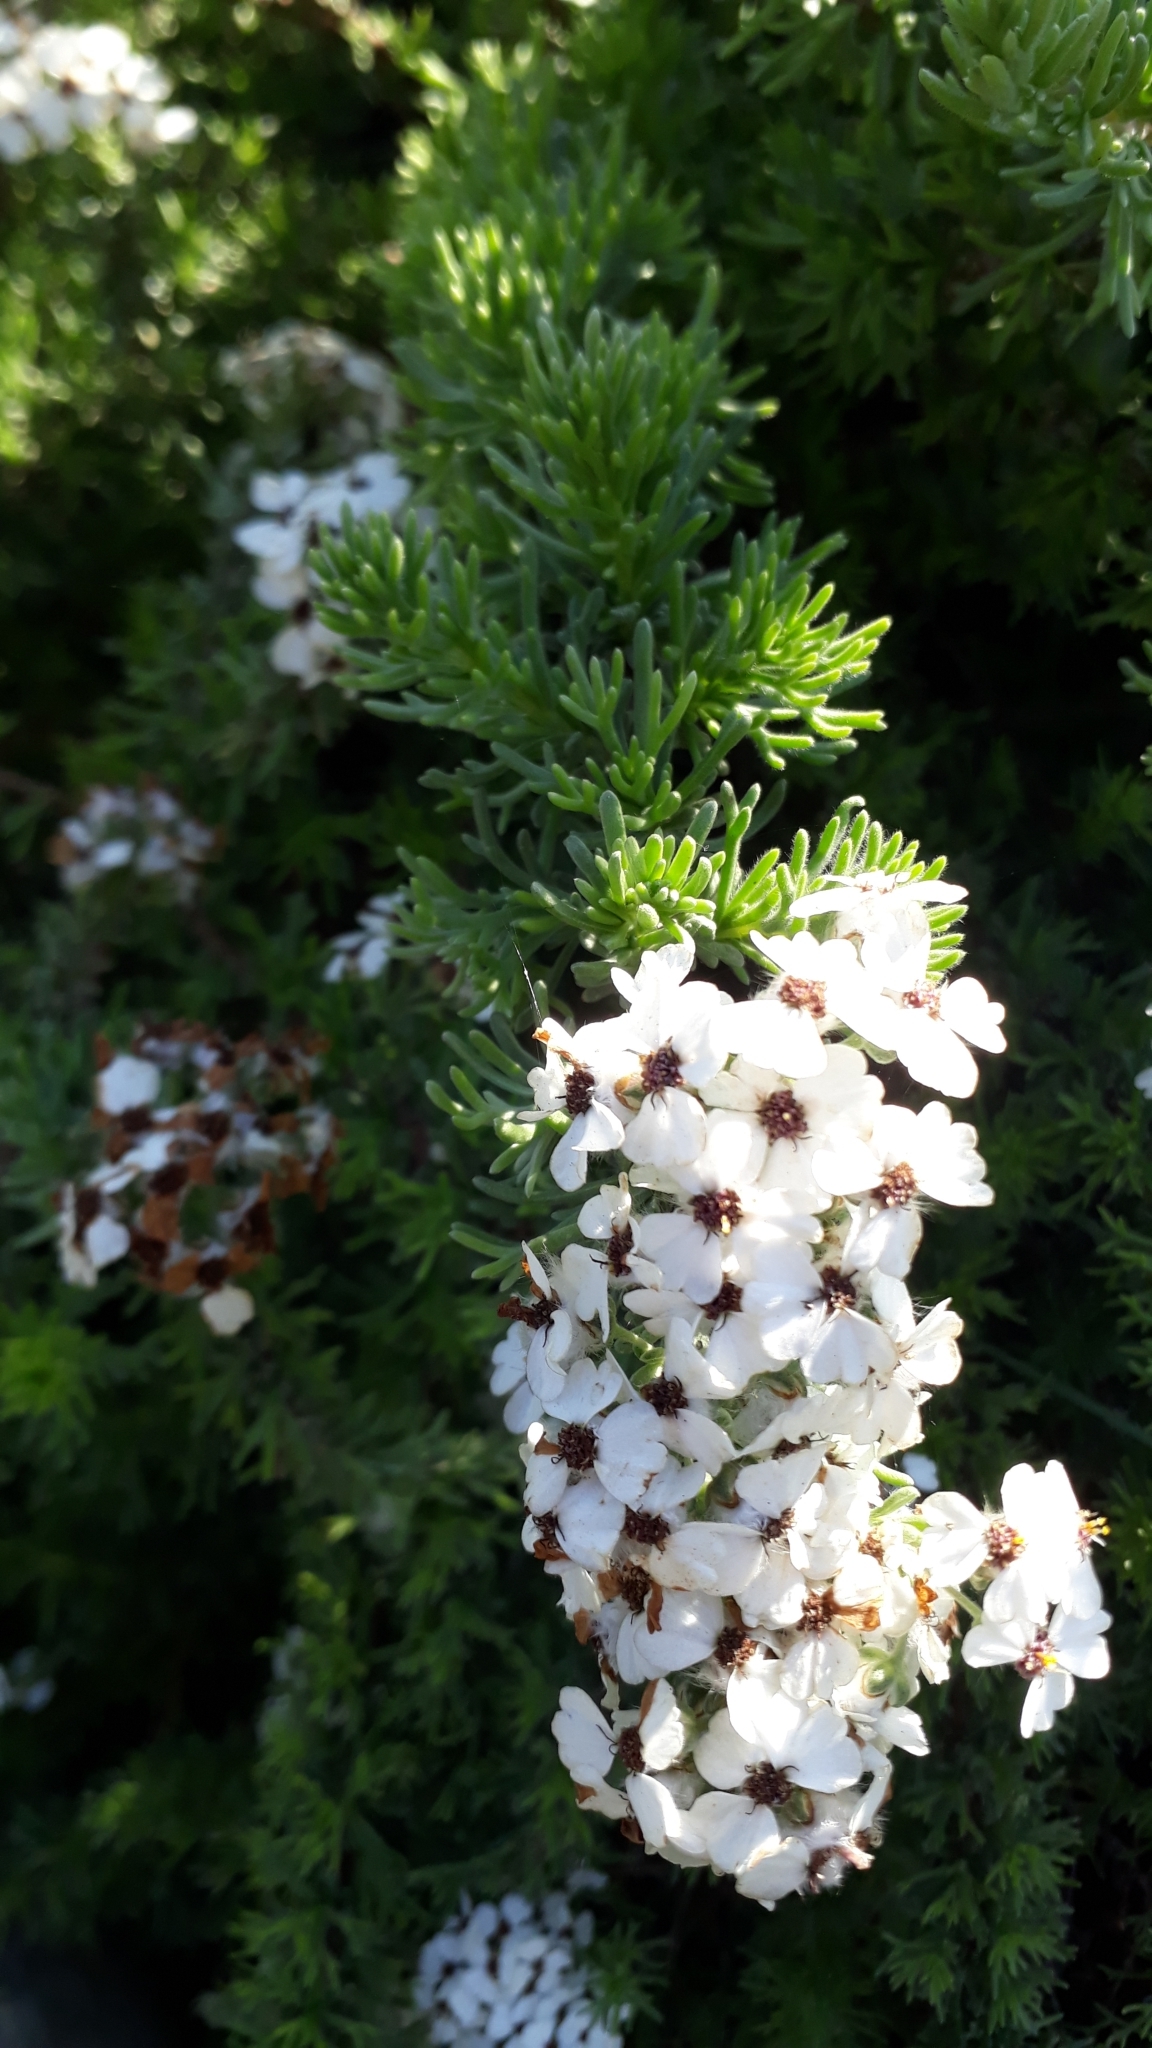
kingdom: Plantae
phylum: Tracheophyta
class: Magnoliopsida
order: Asterales
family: Asteraceae
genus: Eriocephalus
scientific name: Eriocephalus africanus
